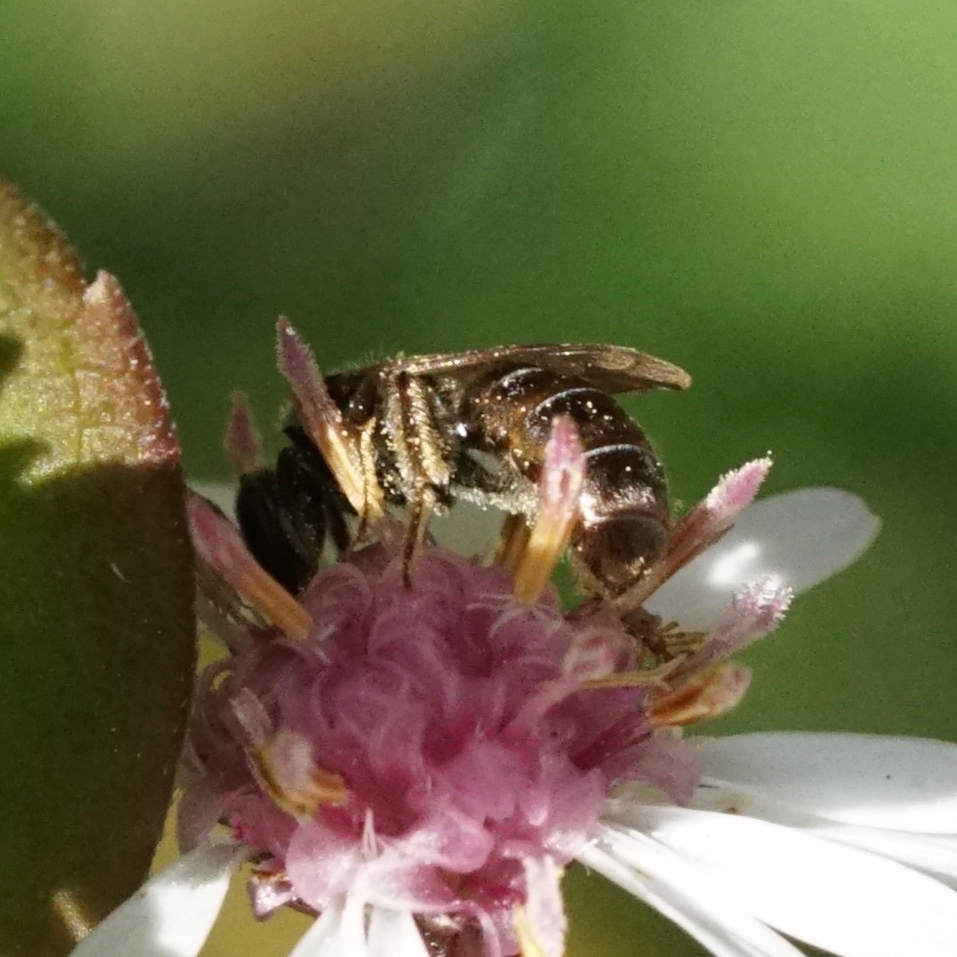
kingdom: Animalia
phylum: Arthropoda
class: Insecta
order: Hymenoptera
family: Halictidae
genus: Dialictus
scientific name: Dialictus
